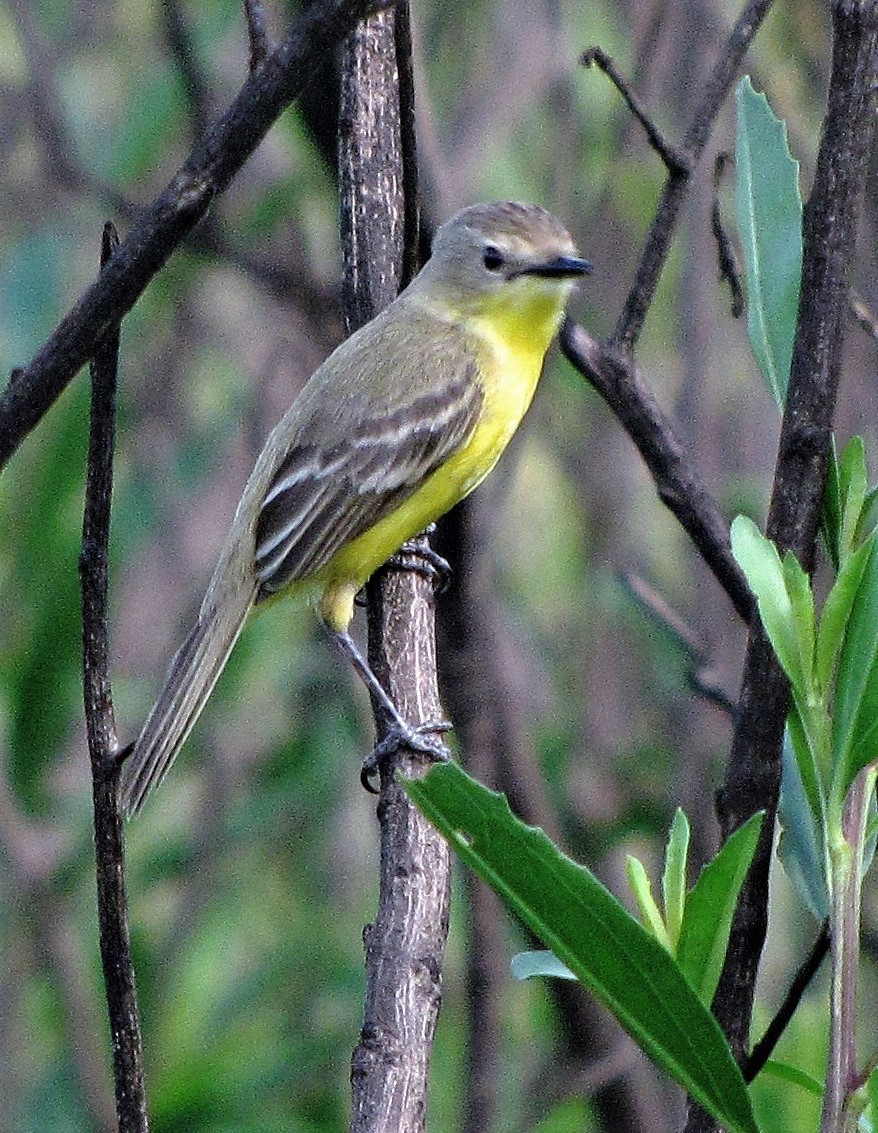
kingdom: Animalia
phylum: Chordata
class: Aves
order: Passeriformes
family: Tyrannidae
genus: Pseudocolopteryx
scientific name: Pseudocolopteryx dinelliana
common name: Dinelli's doradito
